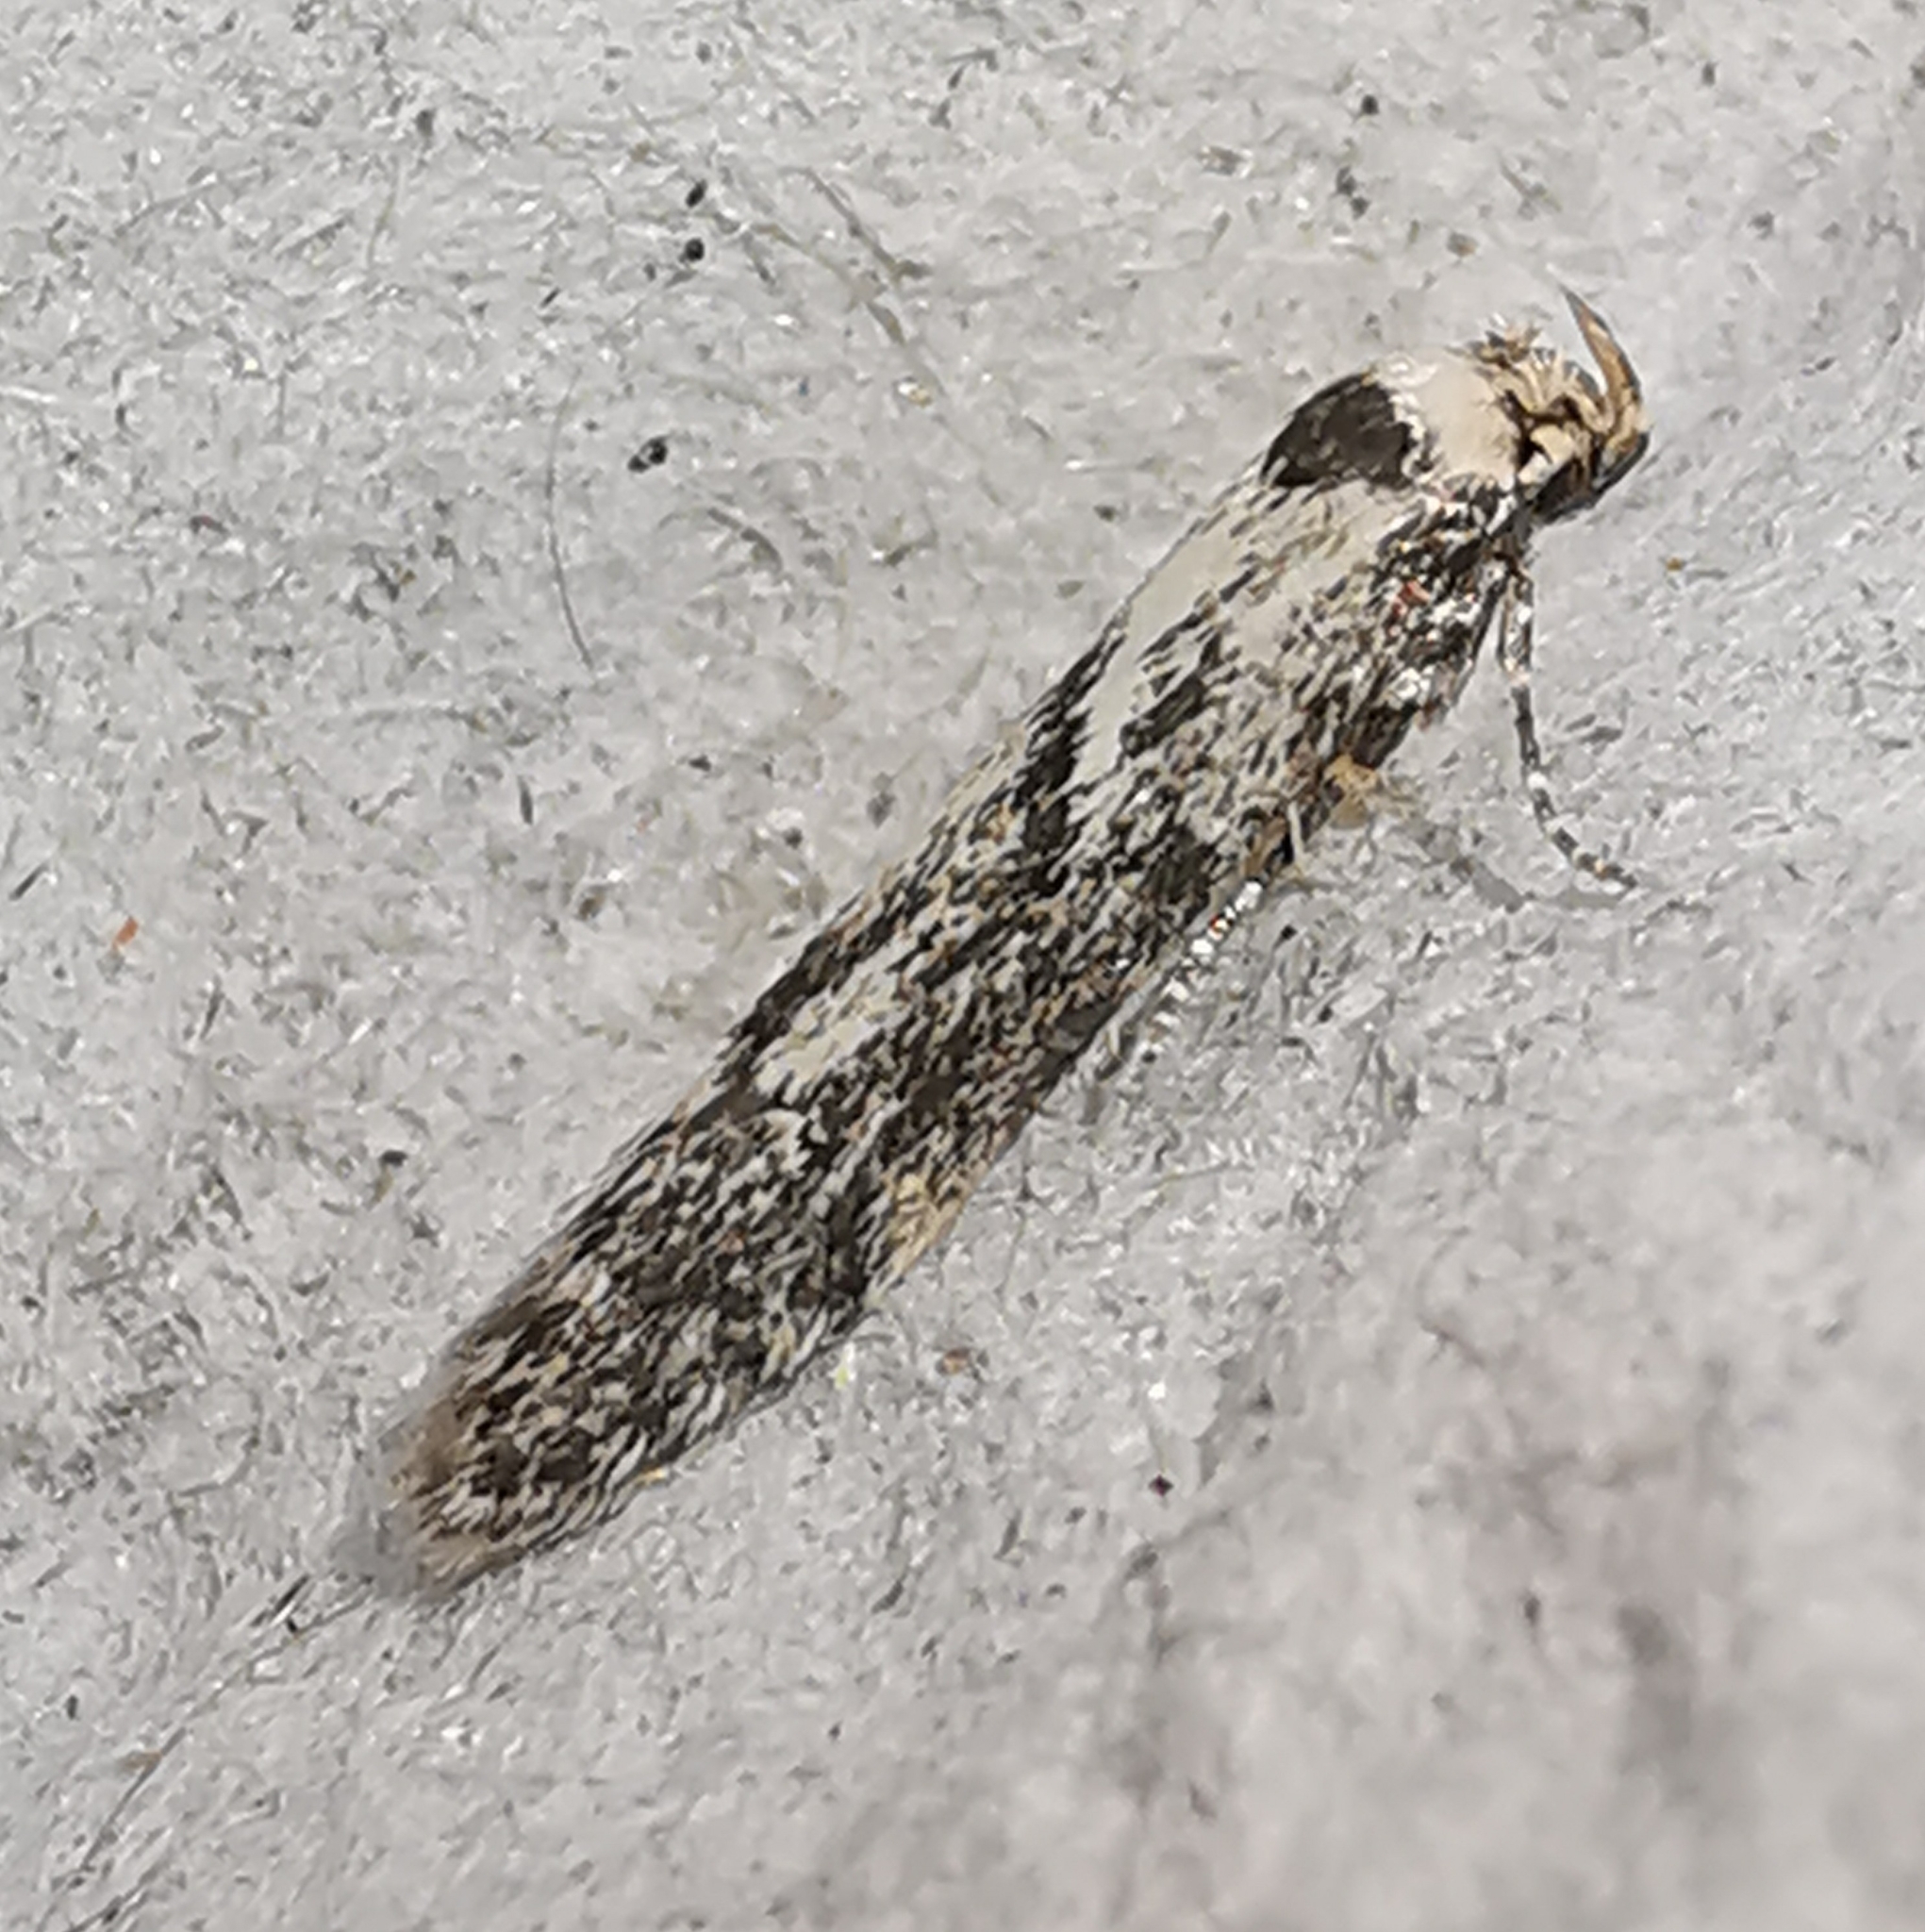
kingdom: Animalia
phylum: Arthropoda
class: Insecta
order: Lepidoptera
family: Blastobasidae
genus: Blastobasis
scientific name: Blastobasis adustella
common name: Dingy dowd
